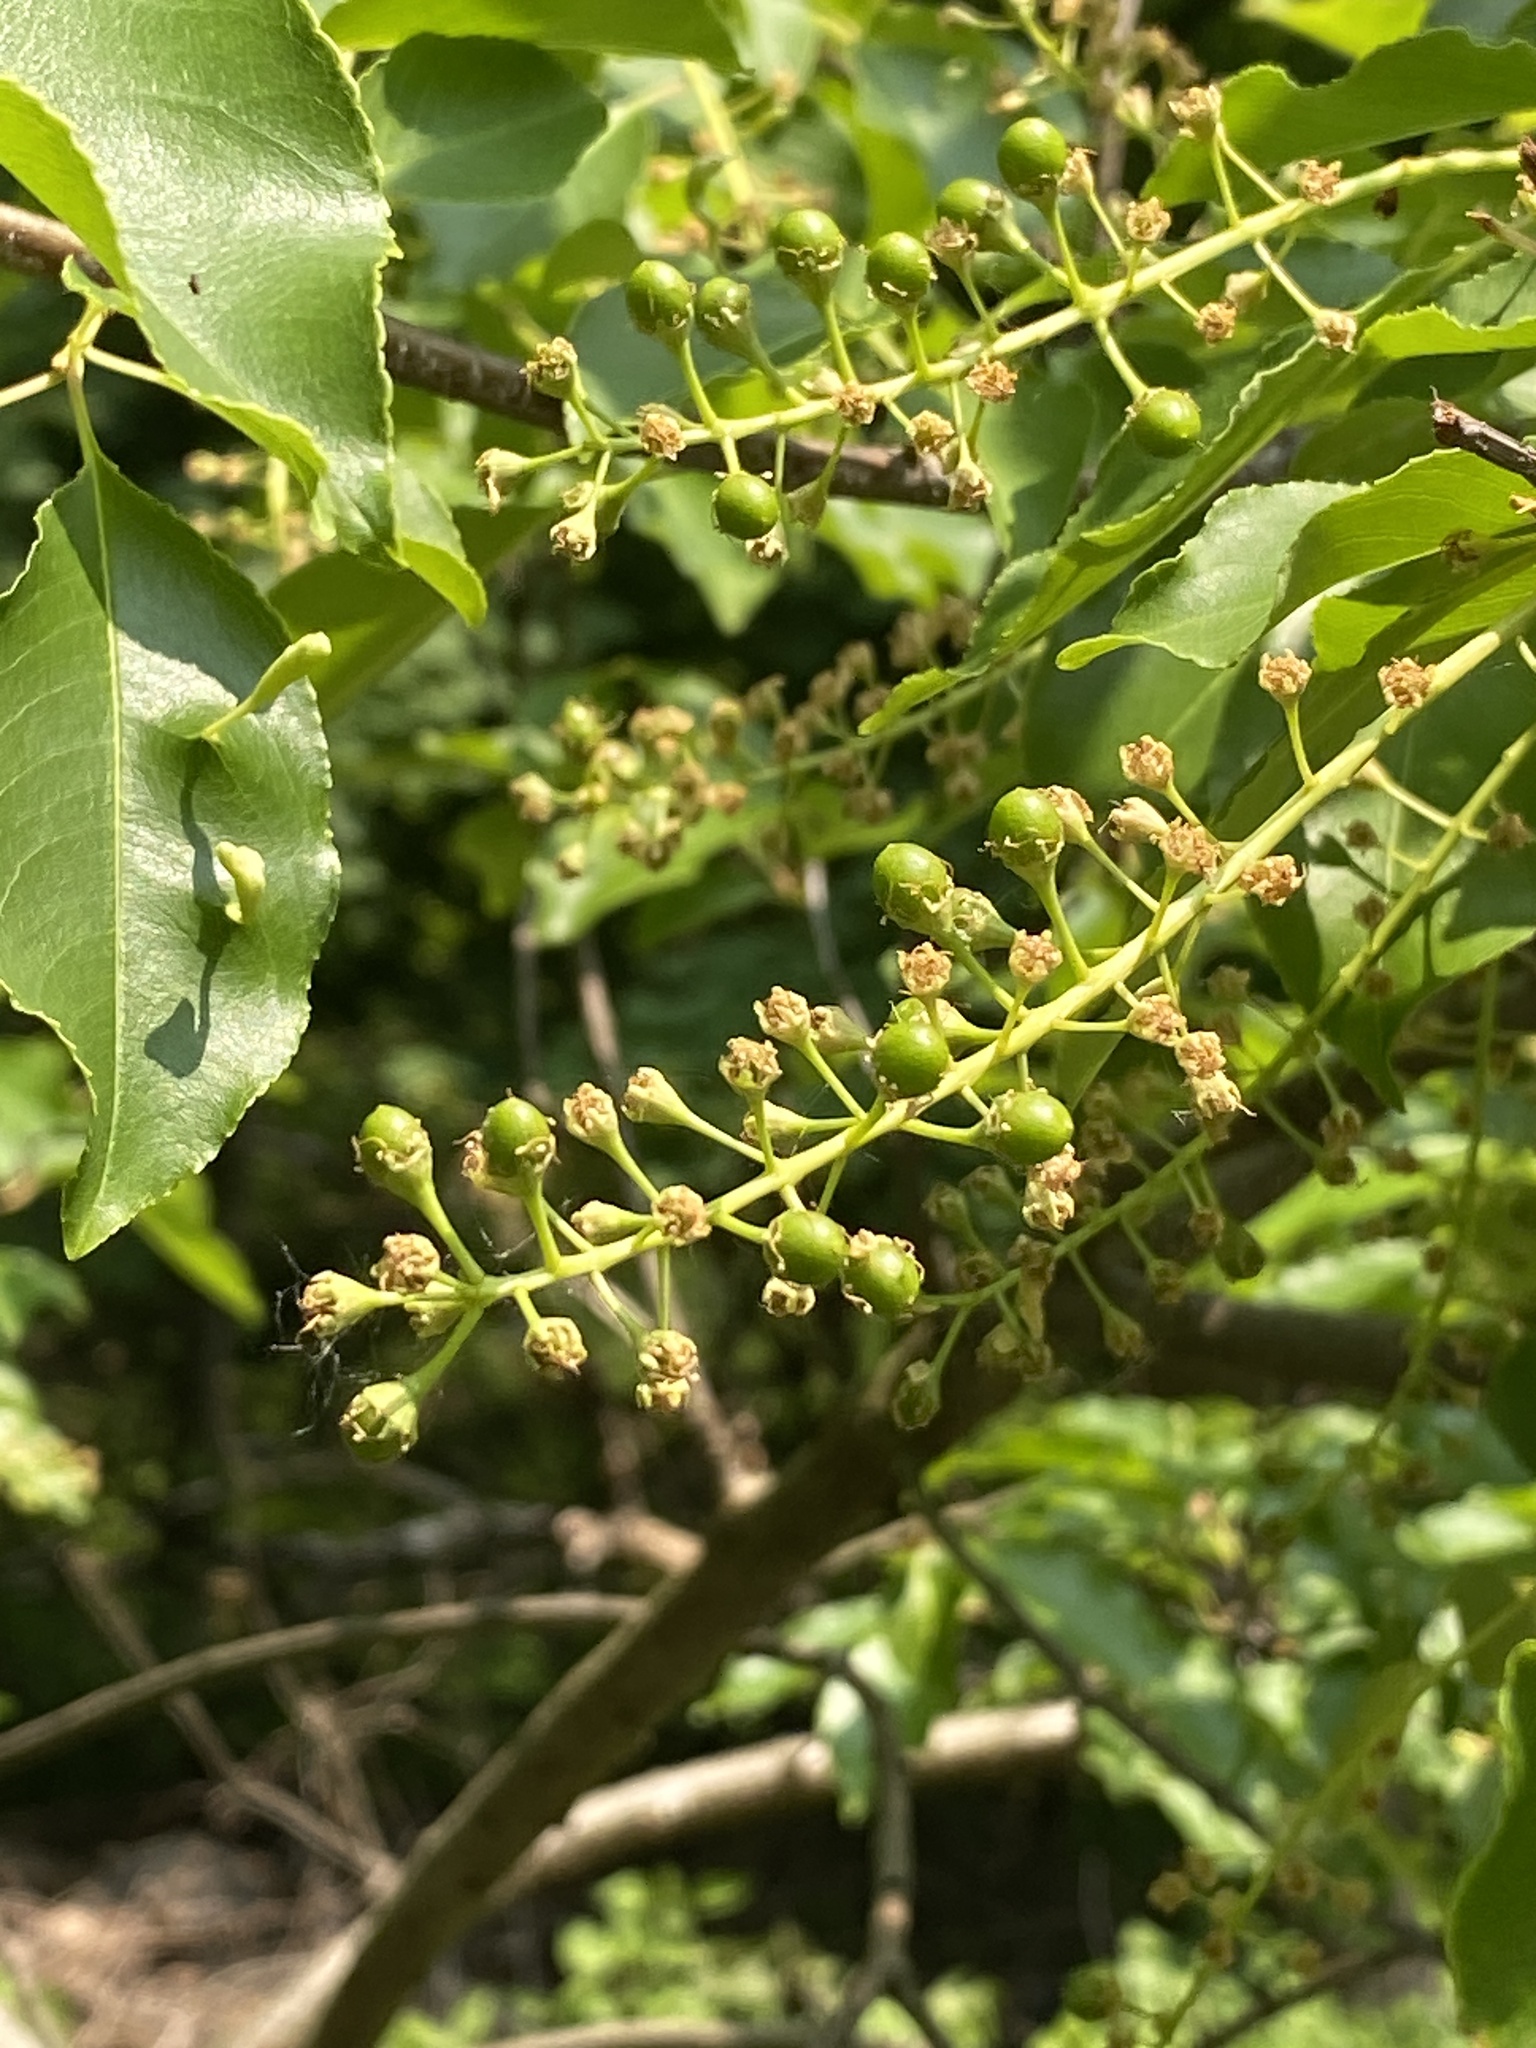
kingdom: Plantae
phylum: Tracheophyta
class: Magnoliopsida
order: Rosales
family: Rosaceae
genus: Prunus
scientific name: Prunus serotina
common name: Black cherry
